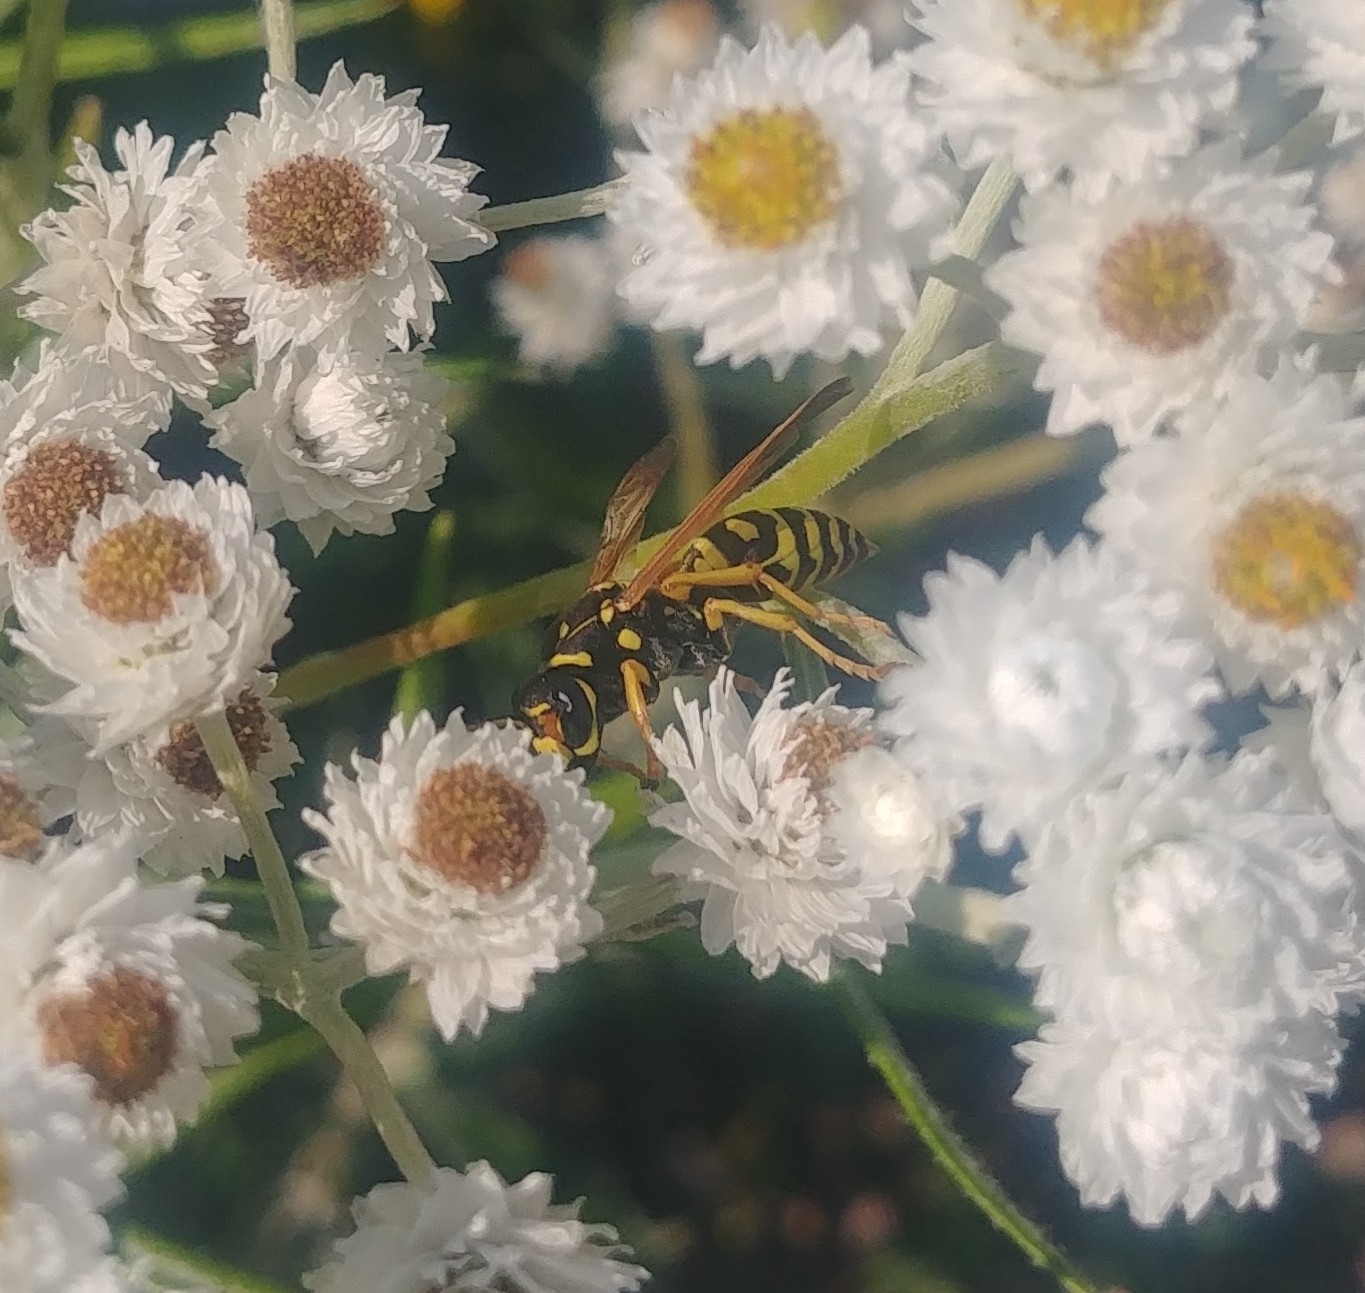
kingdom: Animalia
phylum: Arthropoda
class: Insecta
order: Hymenoptera
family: Eumenidae
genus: Polistes
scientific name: Polistes dominula
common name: Paper wasp
